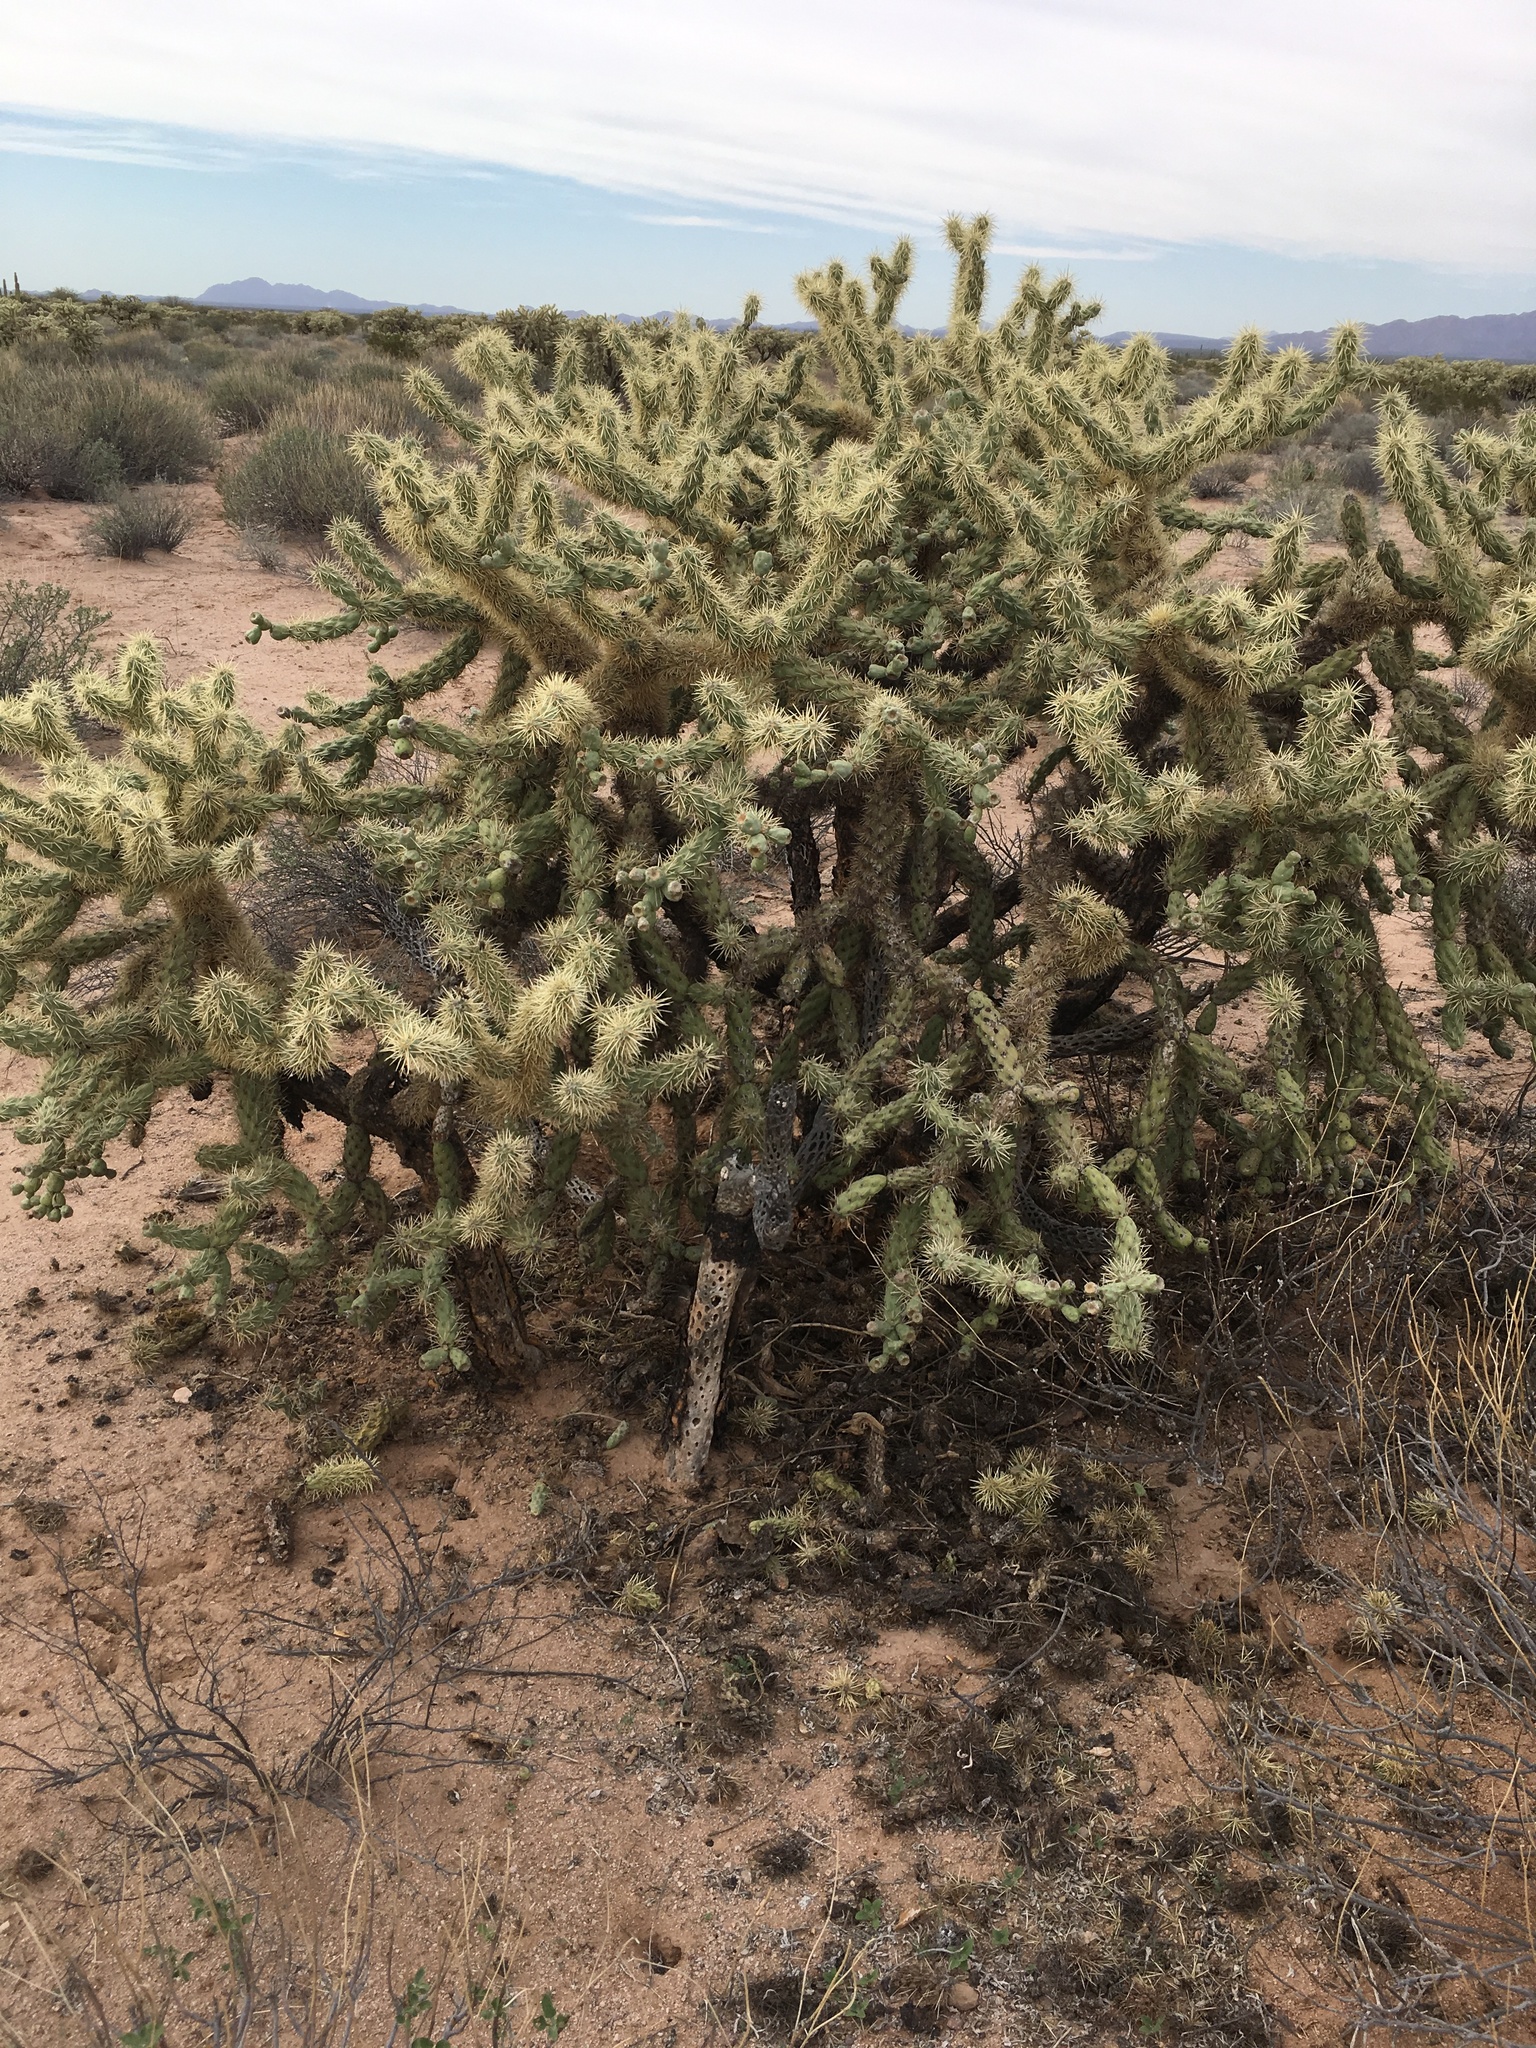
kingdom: Plantae
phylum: Tracheophyta
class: Magnoliopsida
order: Caryophyllales
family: Cactaceae
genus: Cylindropuntia
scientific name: Cylindropuntia fulgida
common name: Jumping cholla
